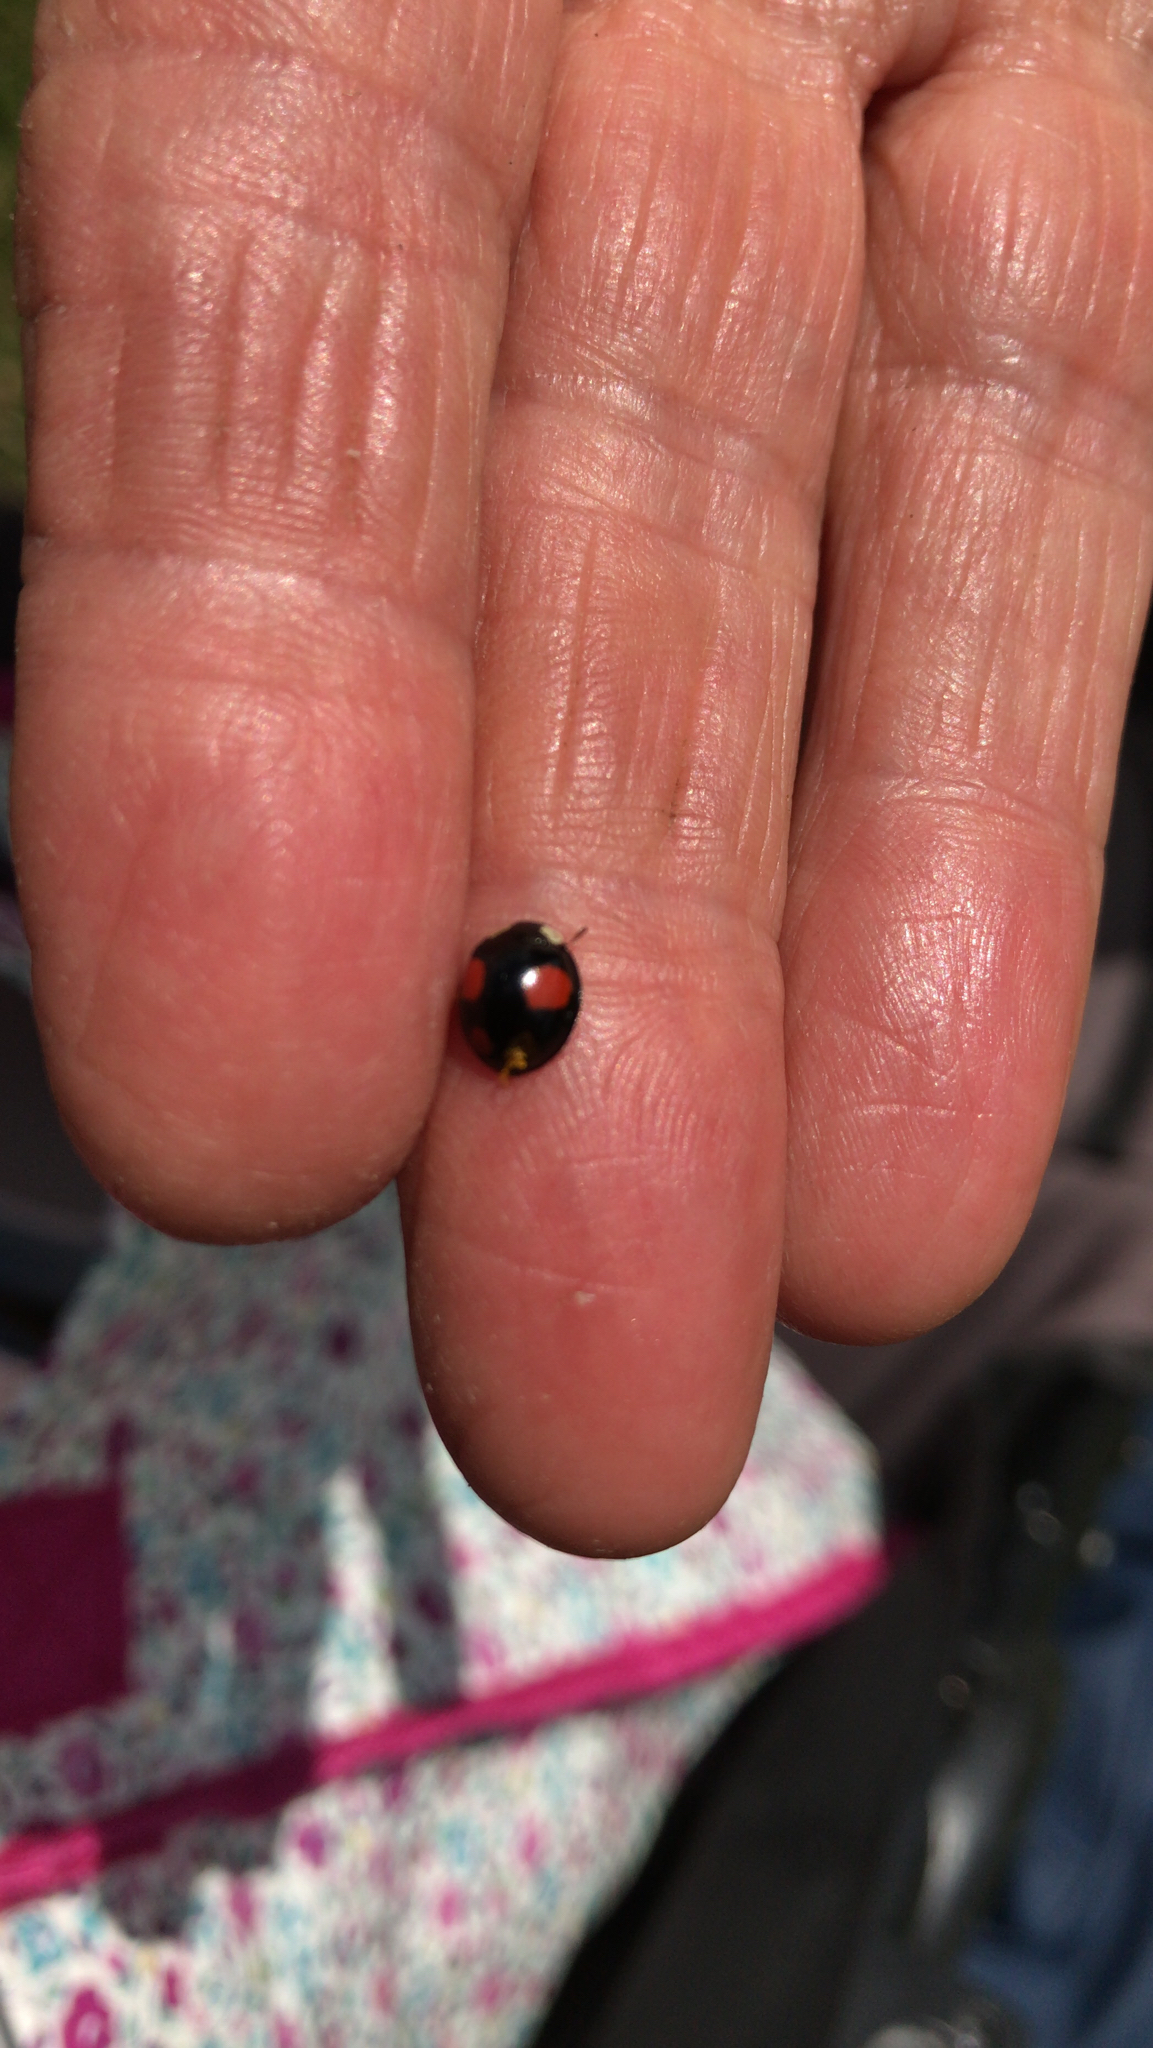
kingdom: Animalia
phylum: Arthropoda
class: Insecta
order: Coleoptera
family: Coccinellidae
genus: Harmonia
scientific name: Harmonia axyridis
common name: Harlequin ladybird
